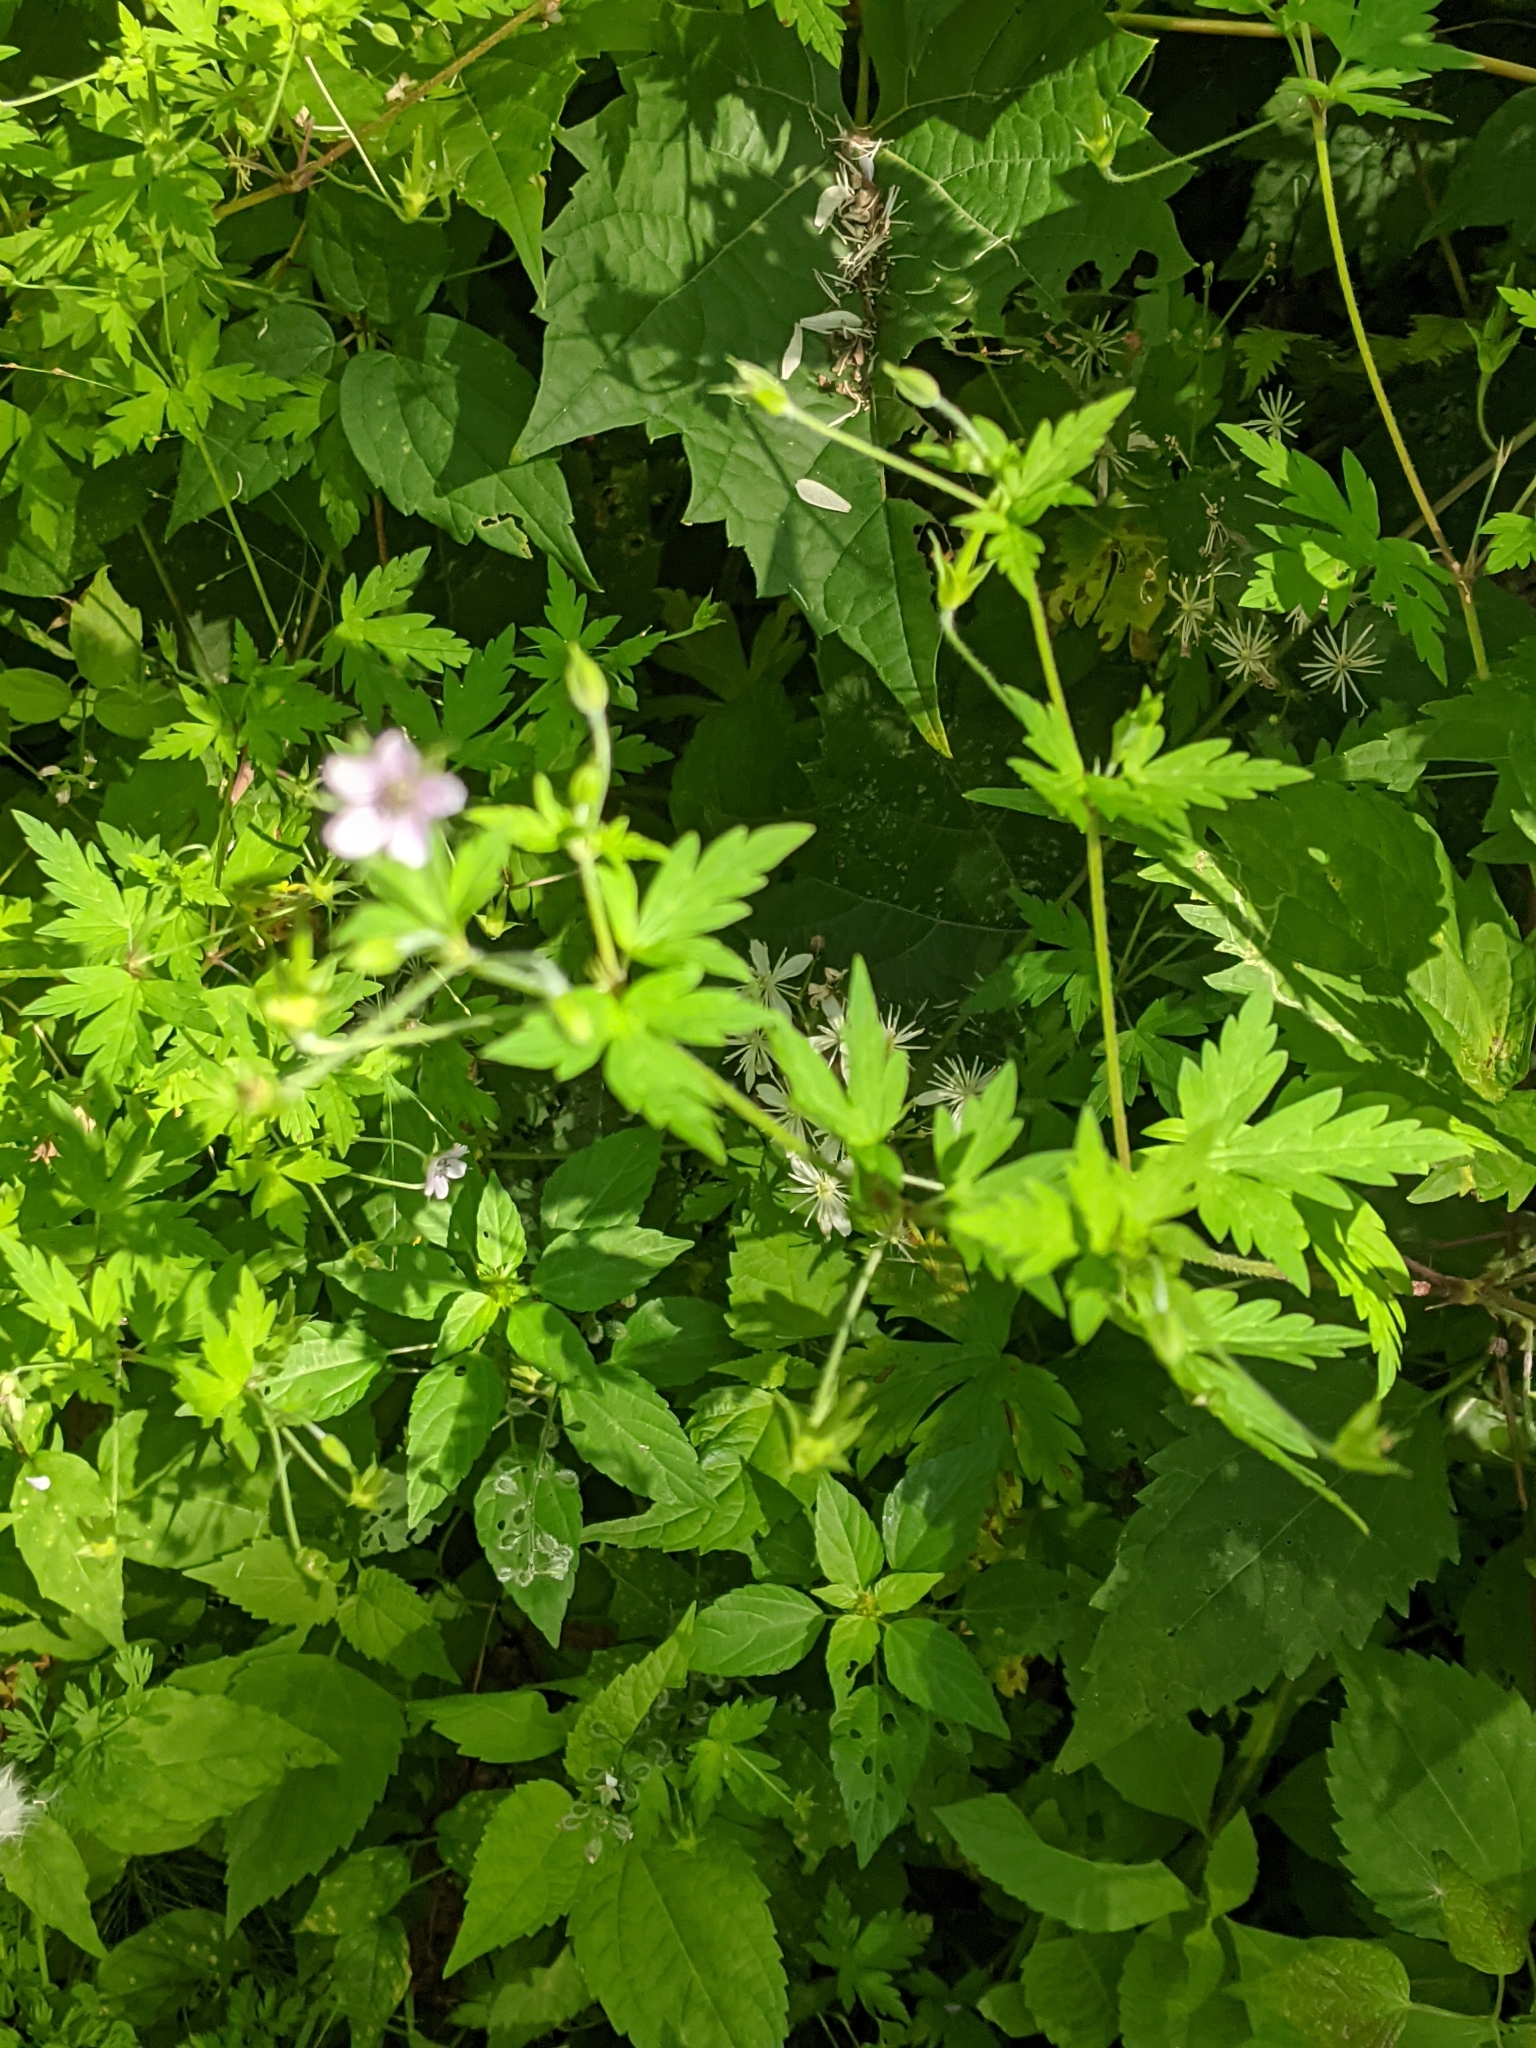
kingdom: Plantae
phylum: Tracheophyta
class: Magnoliopsida
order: Geraniales
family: Geraniaceae
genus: Geranium
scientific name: Geranium sibiricum
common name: Siberian crane's-bill
